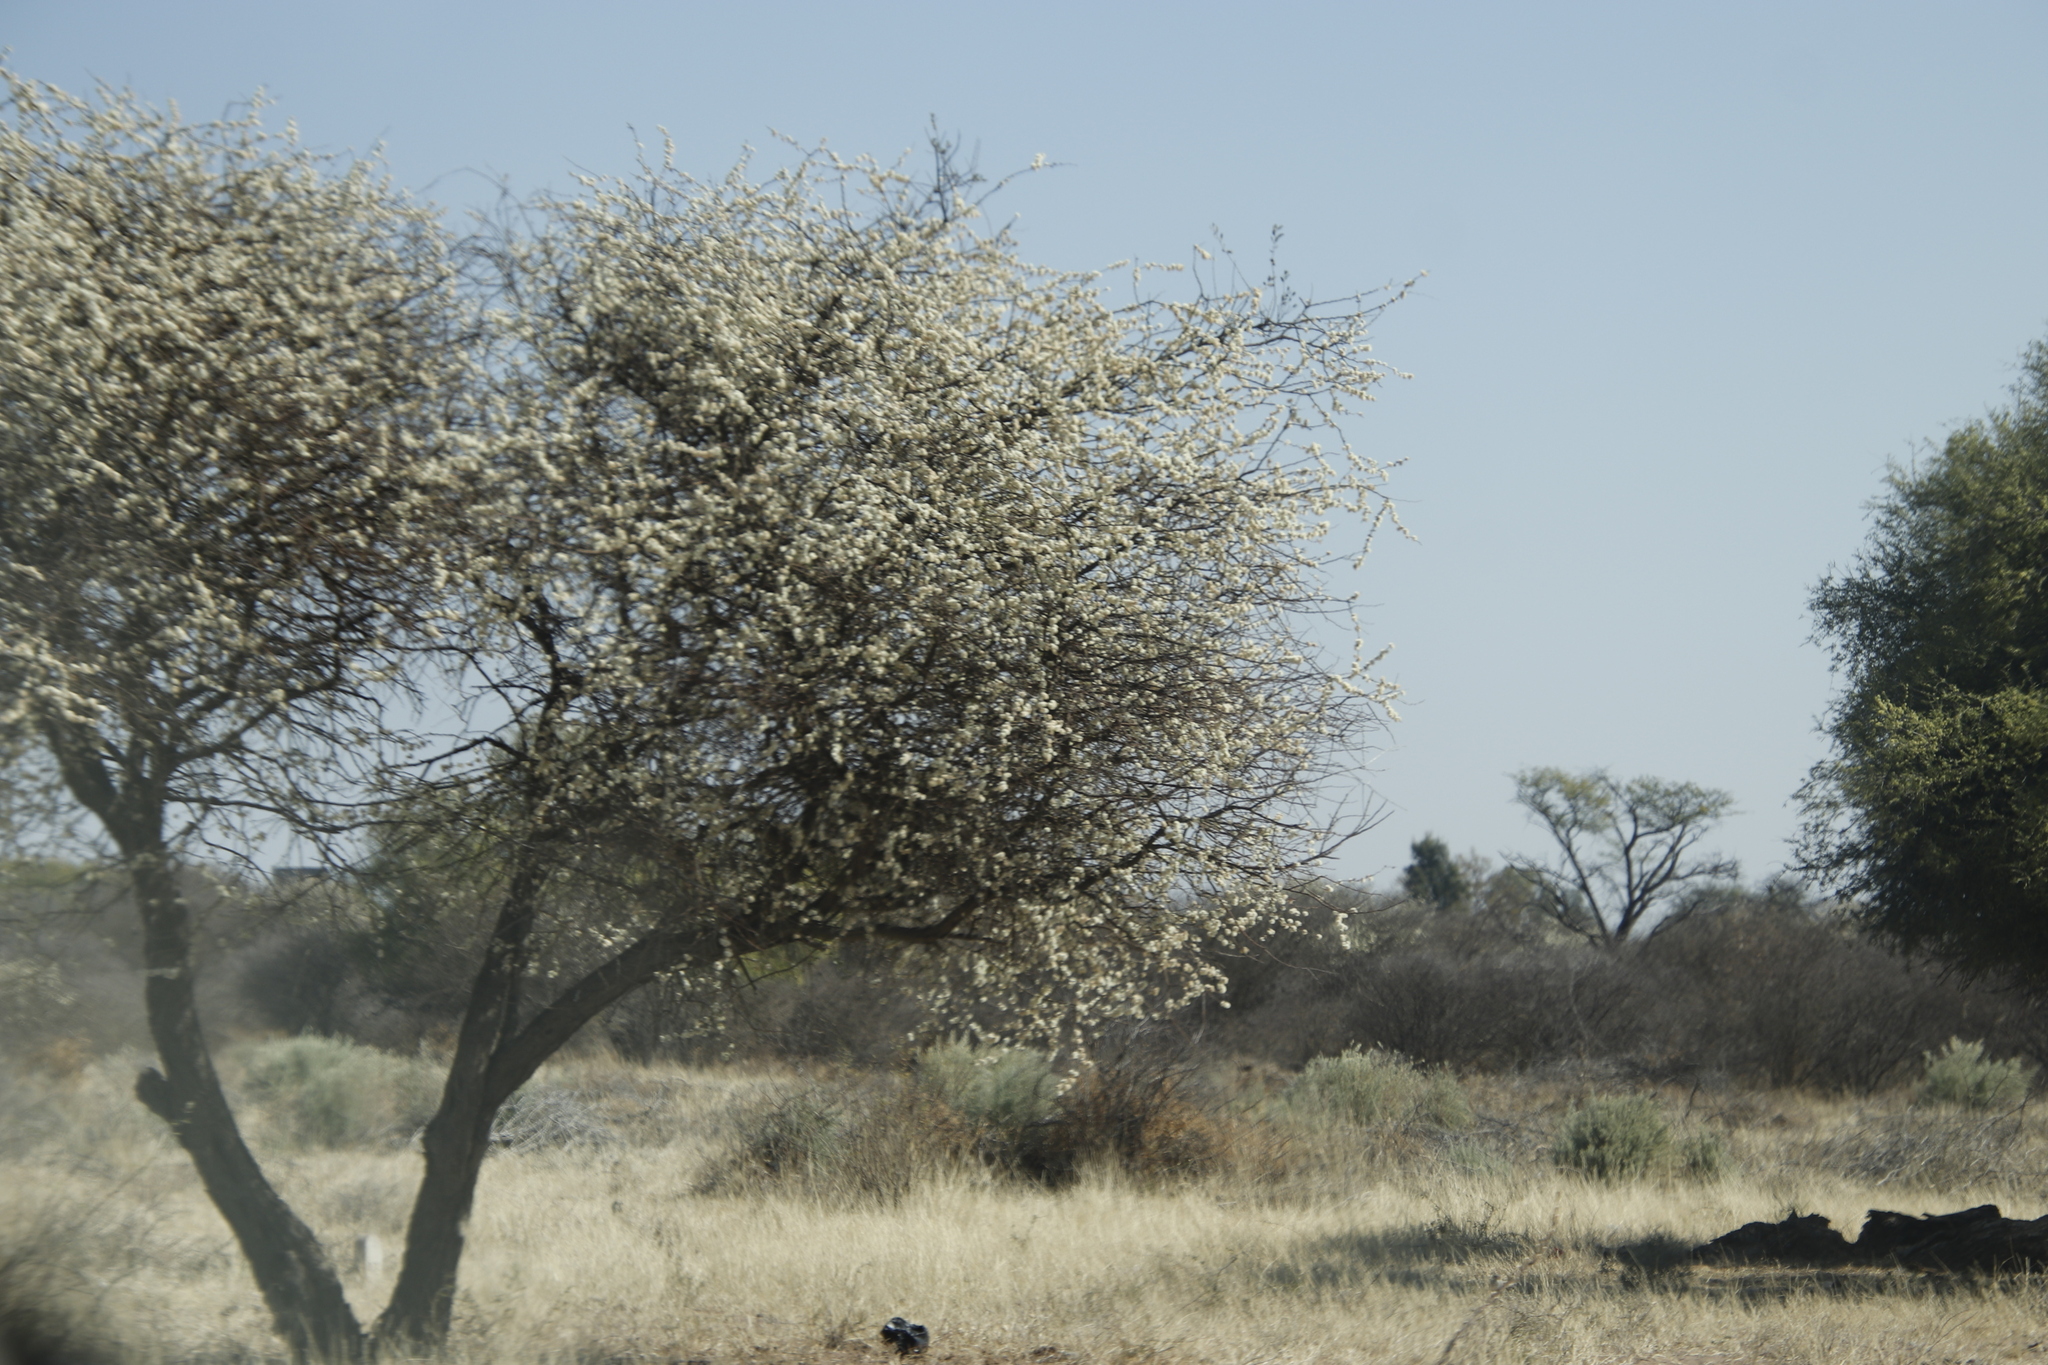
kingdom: Plantae
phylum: Tracheophyta
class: Magnoliopsida
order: Fabales
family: Fabaceae
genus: Senegalia
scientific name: Senegalia mellifera
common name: Hookthorn
